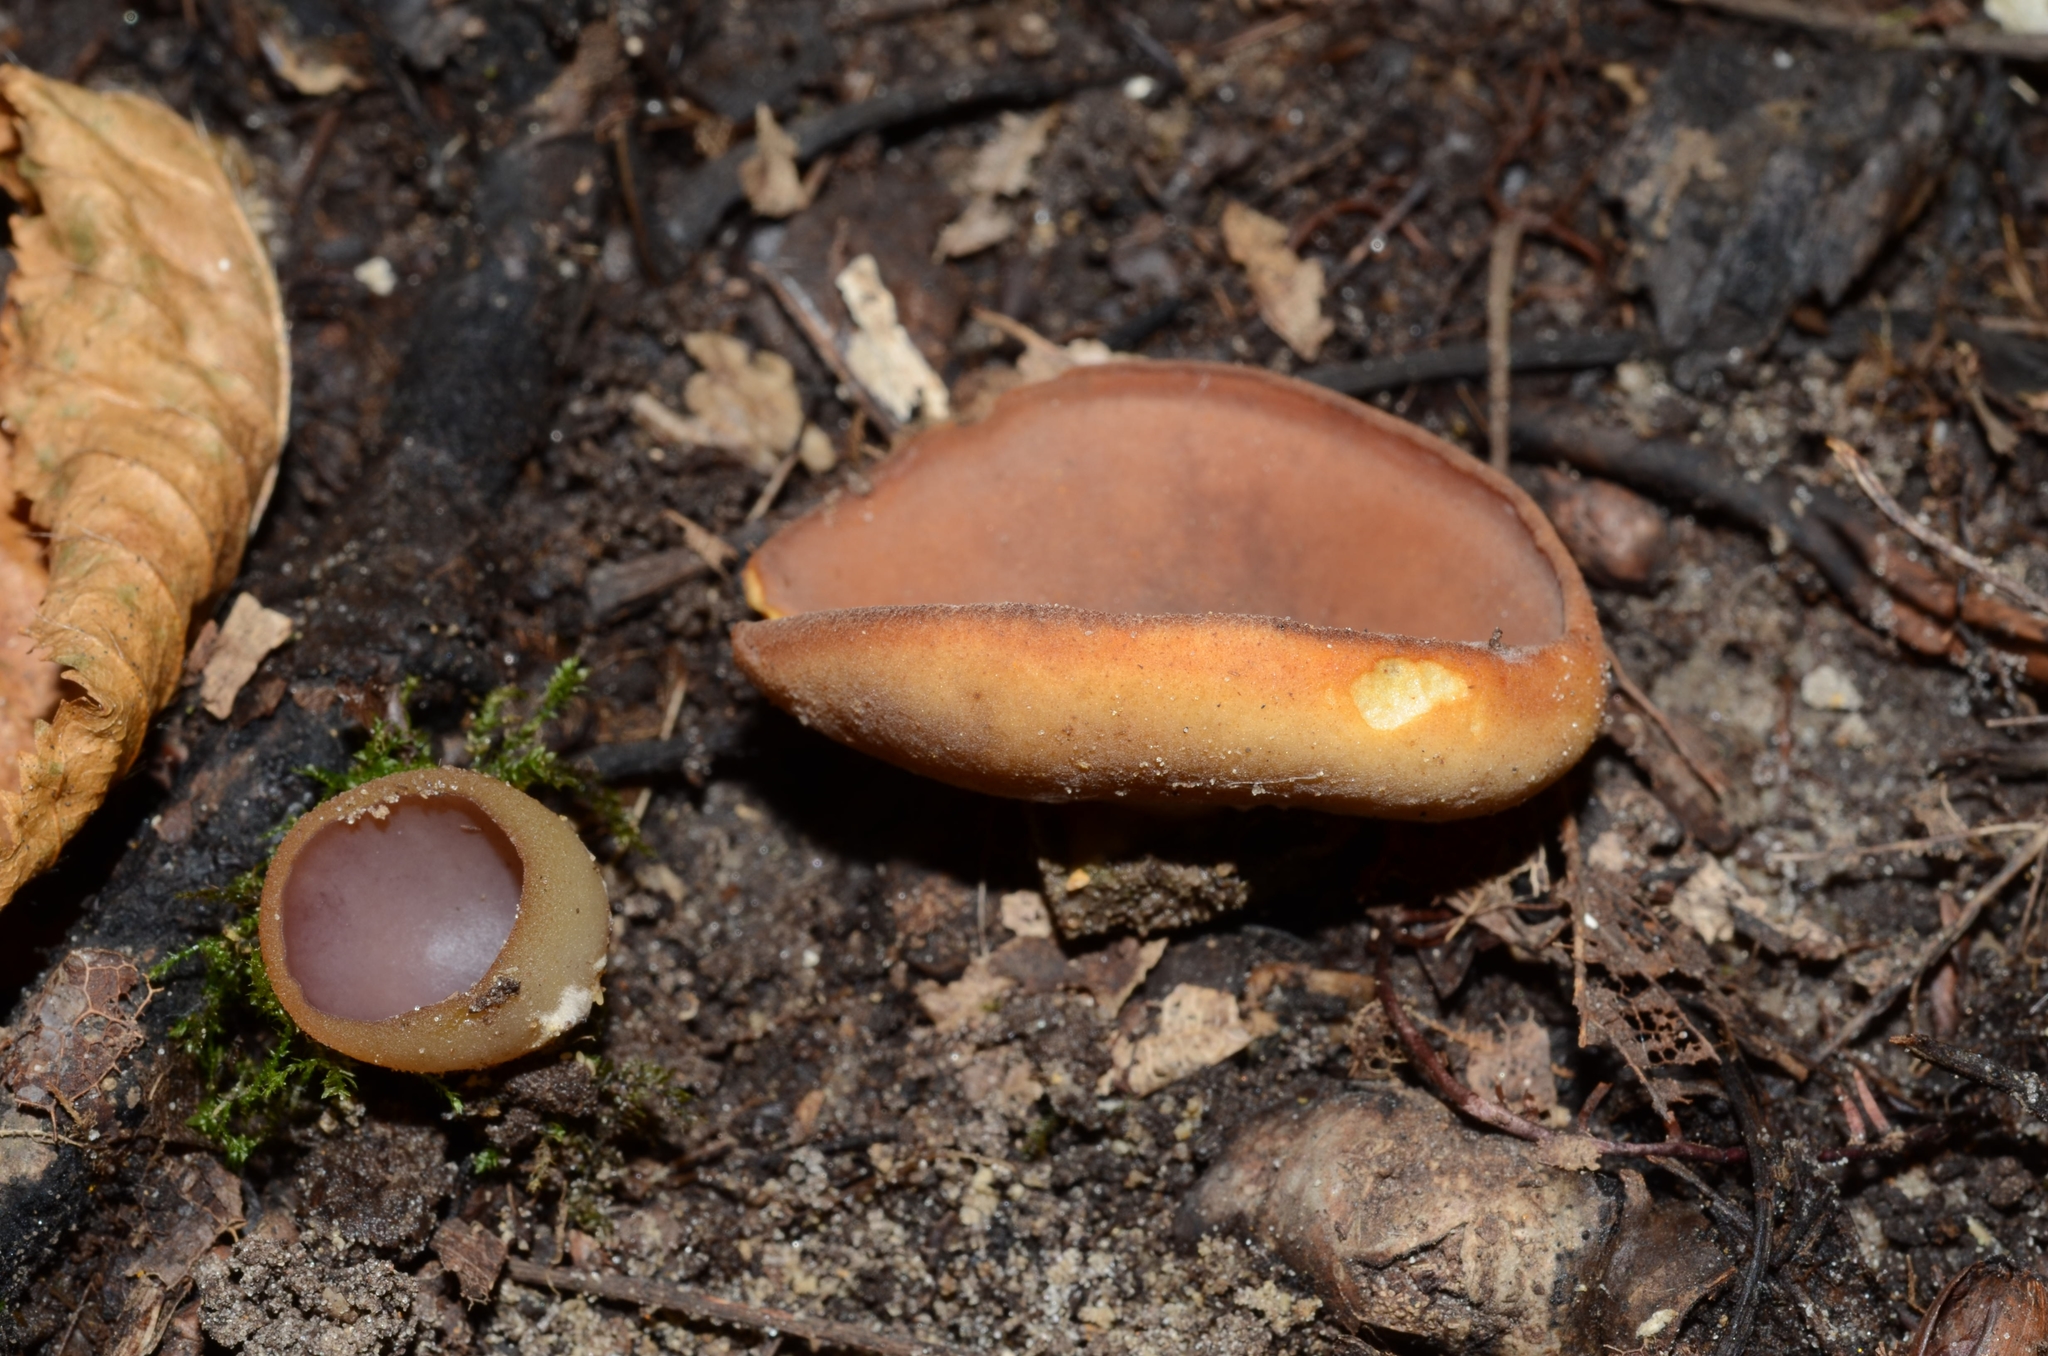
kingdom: Fungi
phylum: Ascomycota
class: Pezizomycetes
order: Pezizales
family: Pezizaceae
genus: Paragalactinia
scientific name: Paragalactinia michelii
